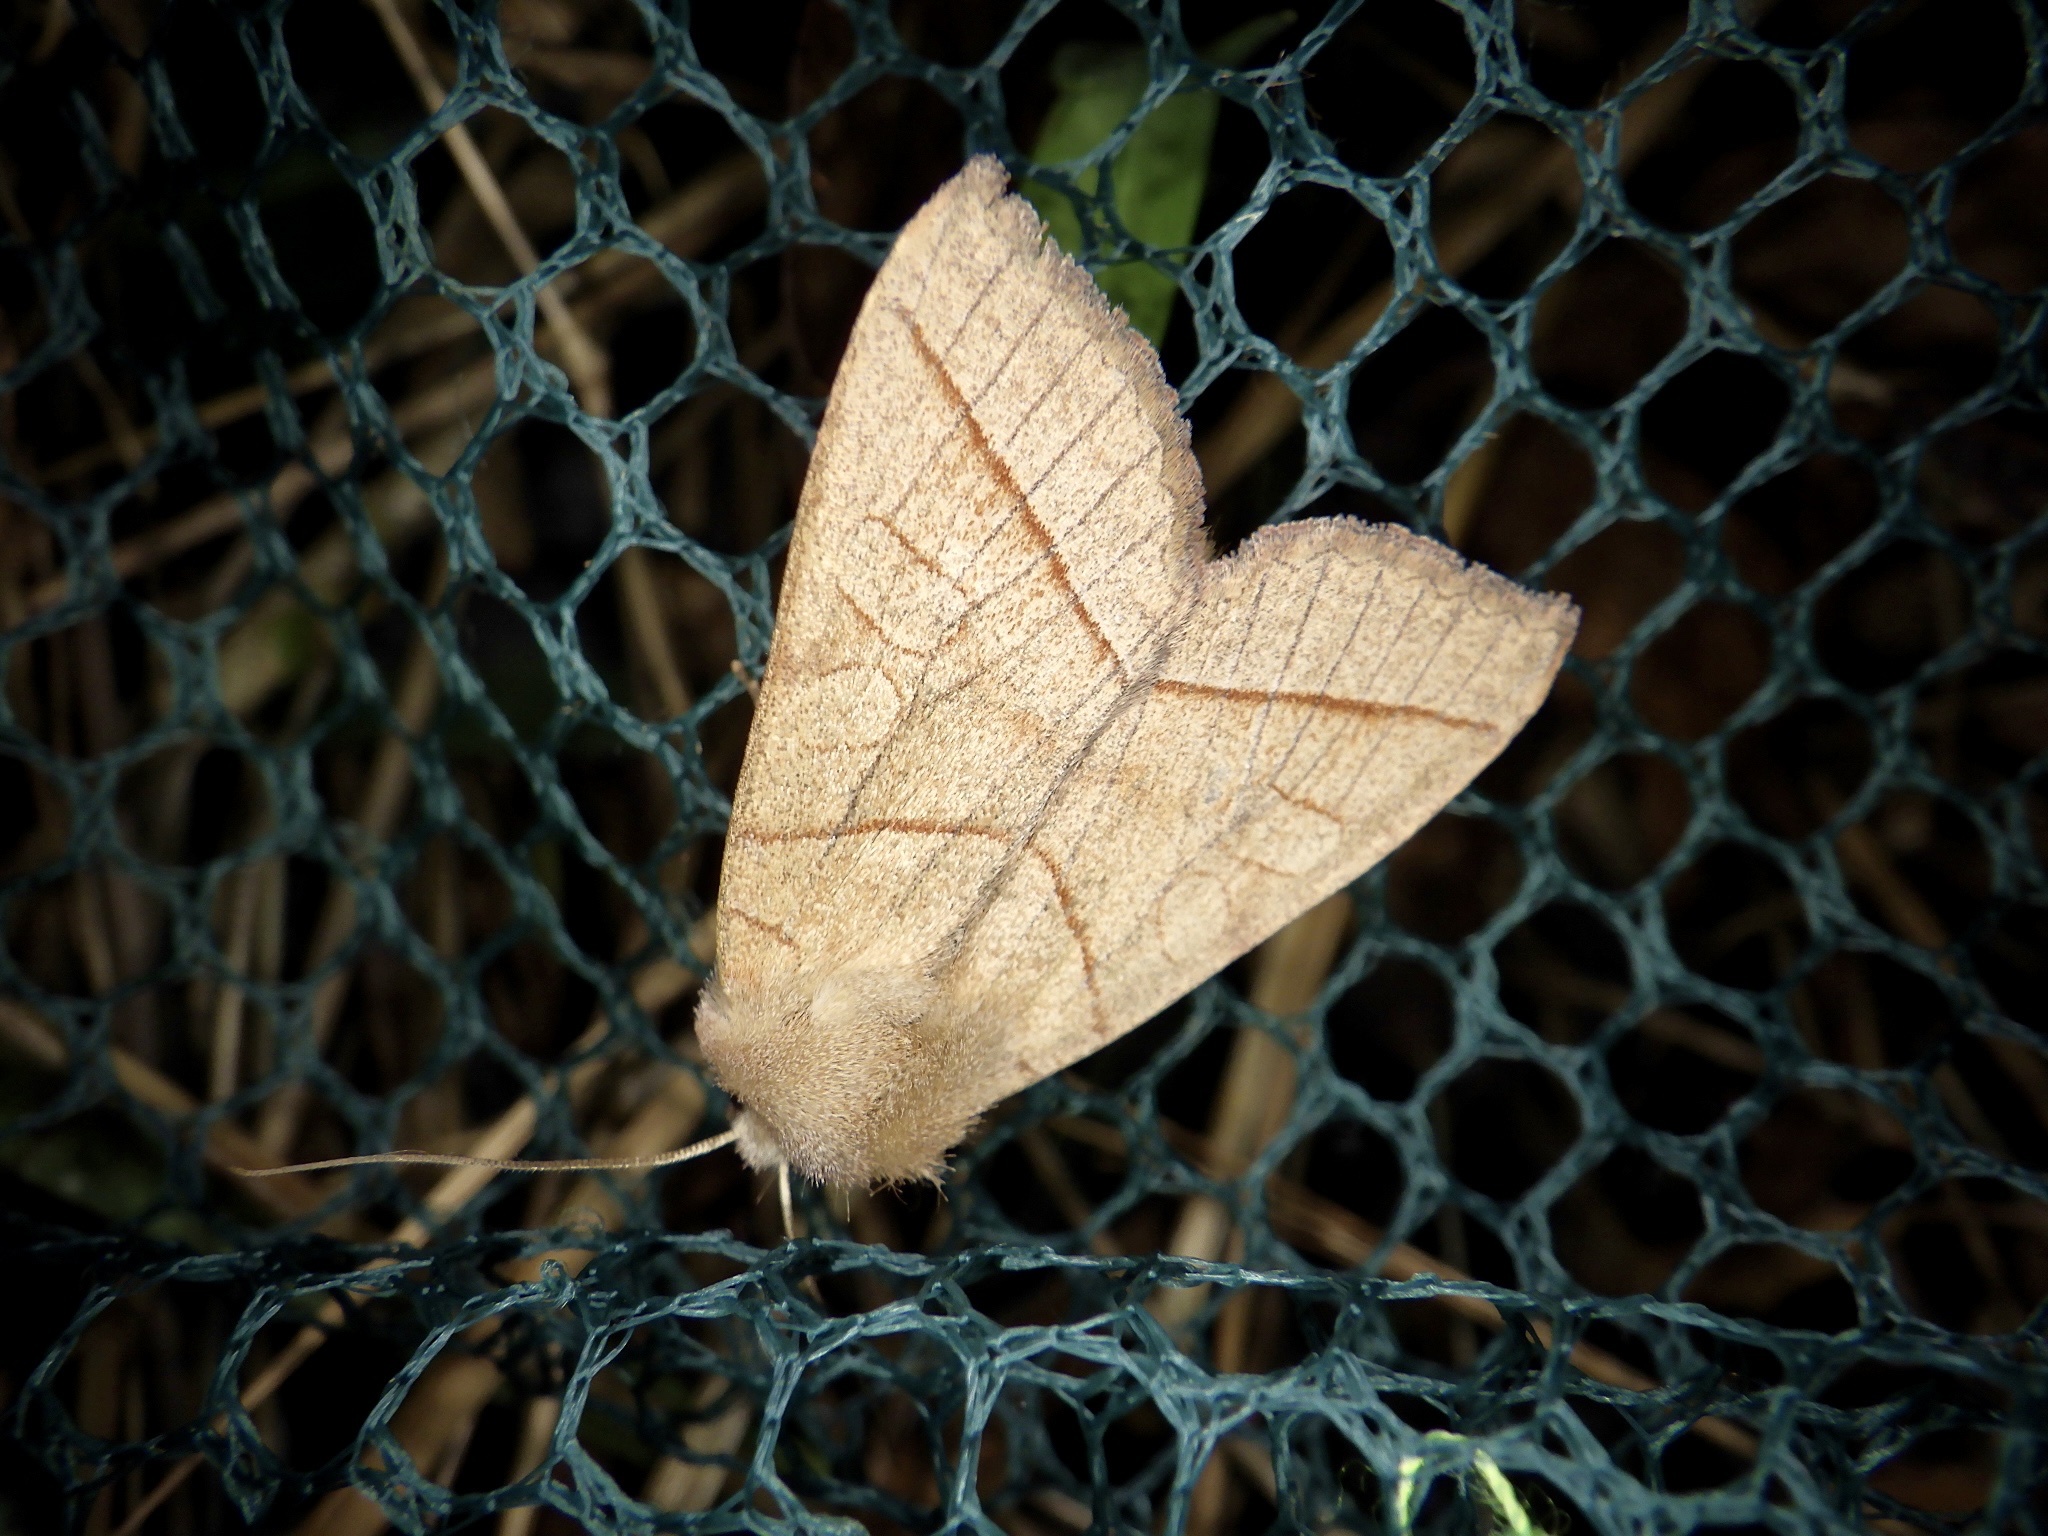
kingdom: Animalia
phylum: Arthropoda
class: Insecta
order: Lepidoptera
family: Noctuidae
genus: Telorta
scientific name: Telorta divergens
